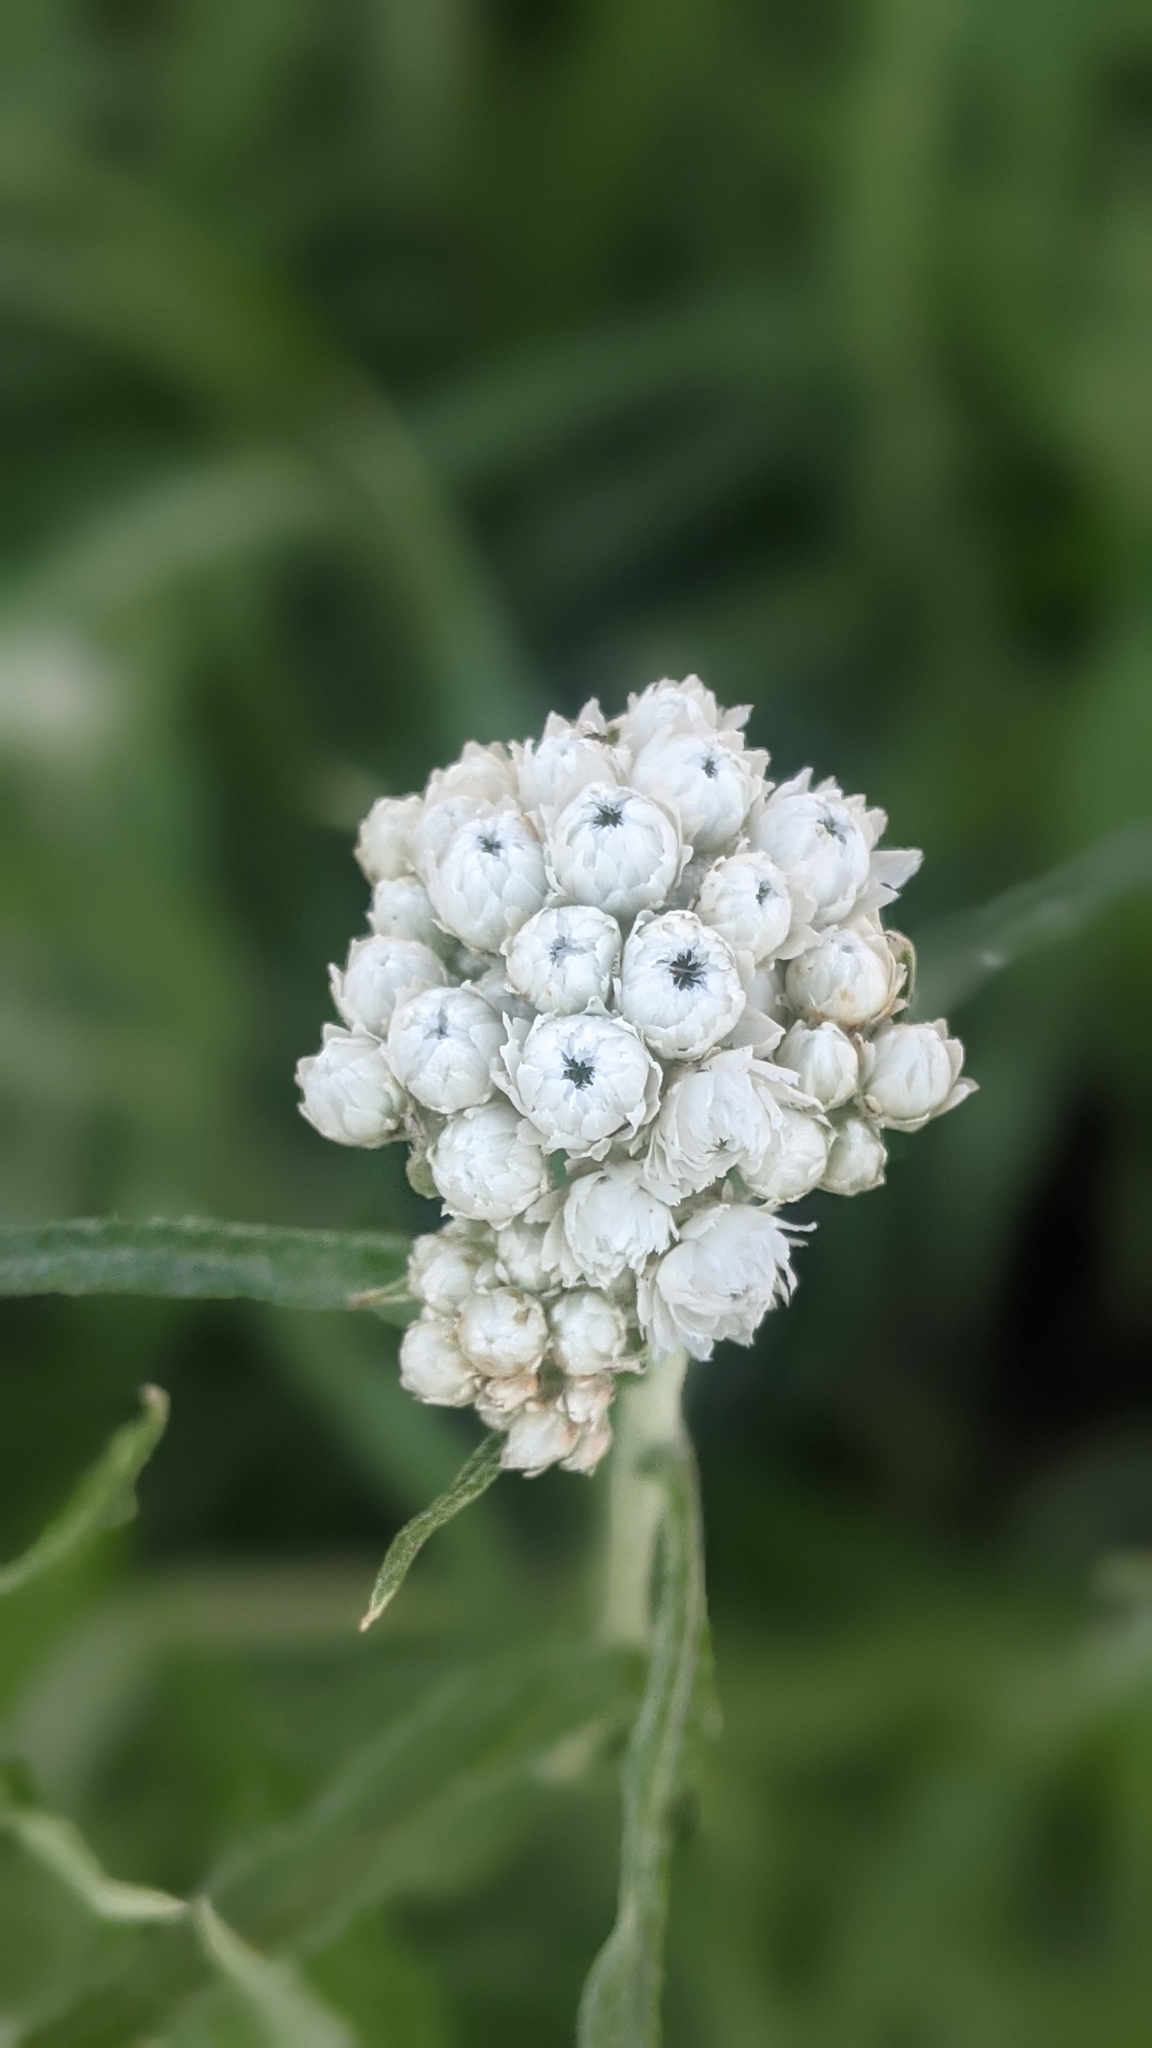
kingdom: Plantae
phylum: Tracheophyta
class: Magnoliopsida
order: Asterales
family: Asteraceae
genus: Anaphalis
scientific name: Anaphalis margaritacea
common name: Pearly everlasting
